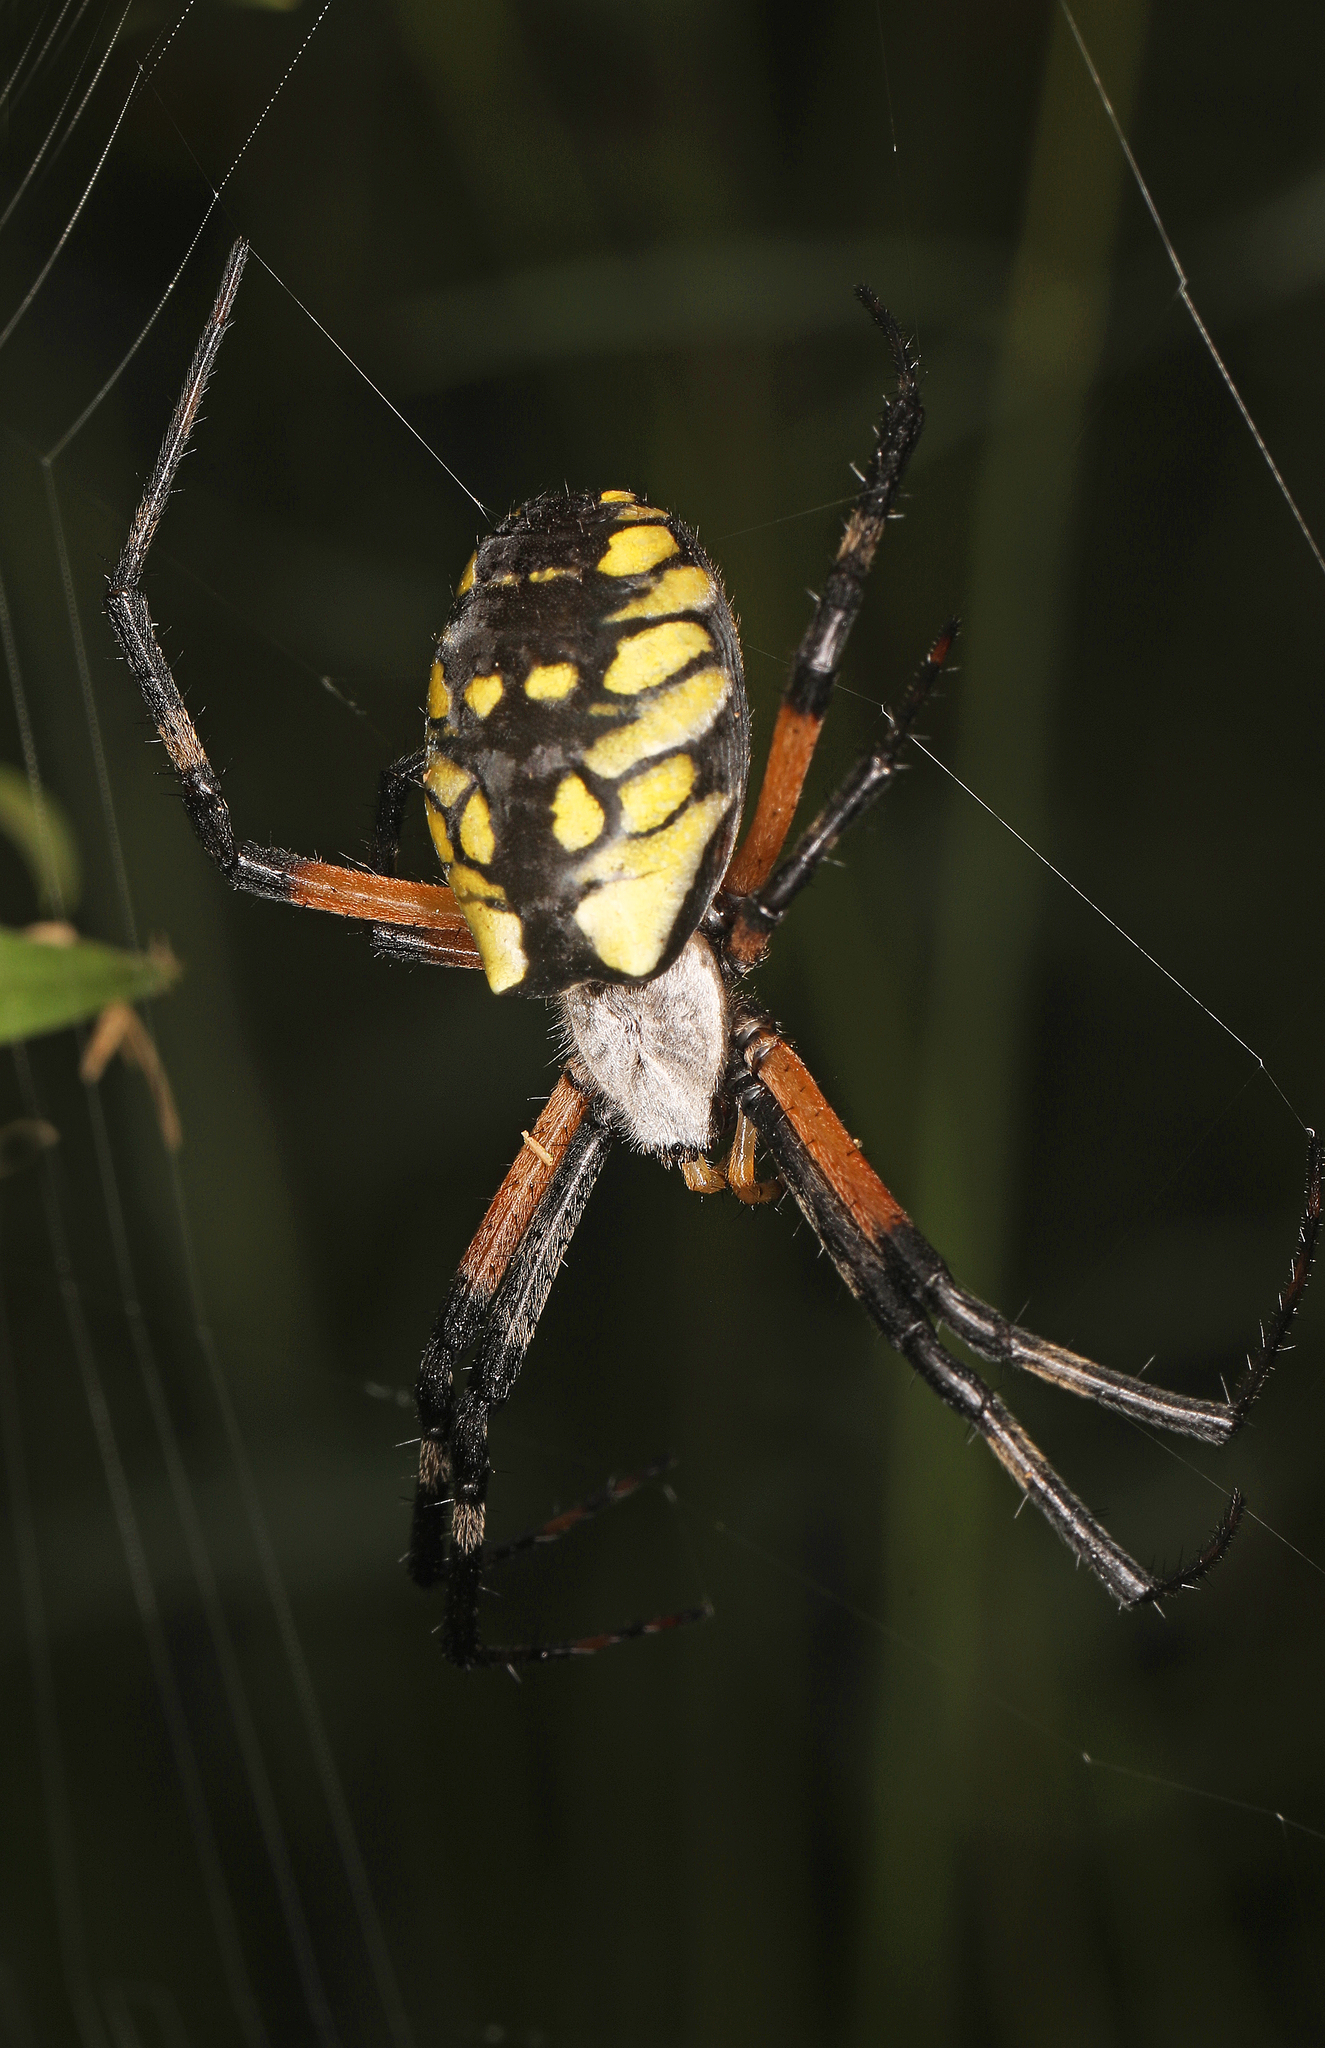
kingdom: Animalia
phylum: Arthropoda
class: Arachnida
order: Araneae
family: Araneidae
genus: Argiope
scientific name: Argiope aurantia
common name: Orb weavers
